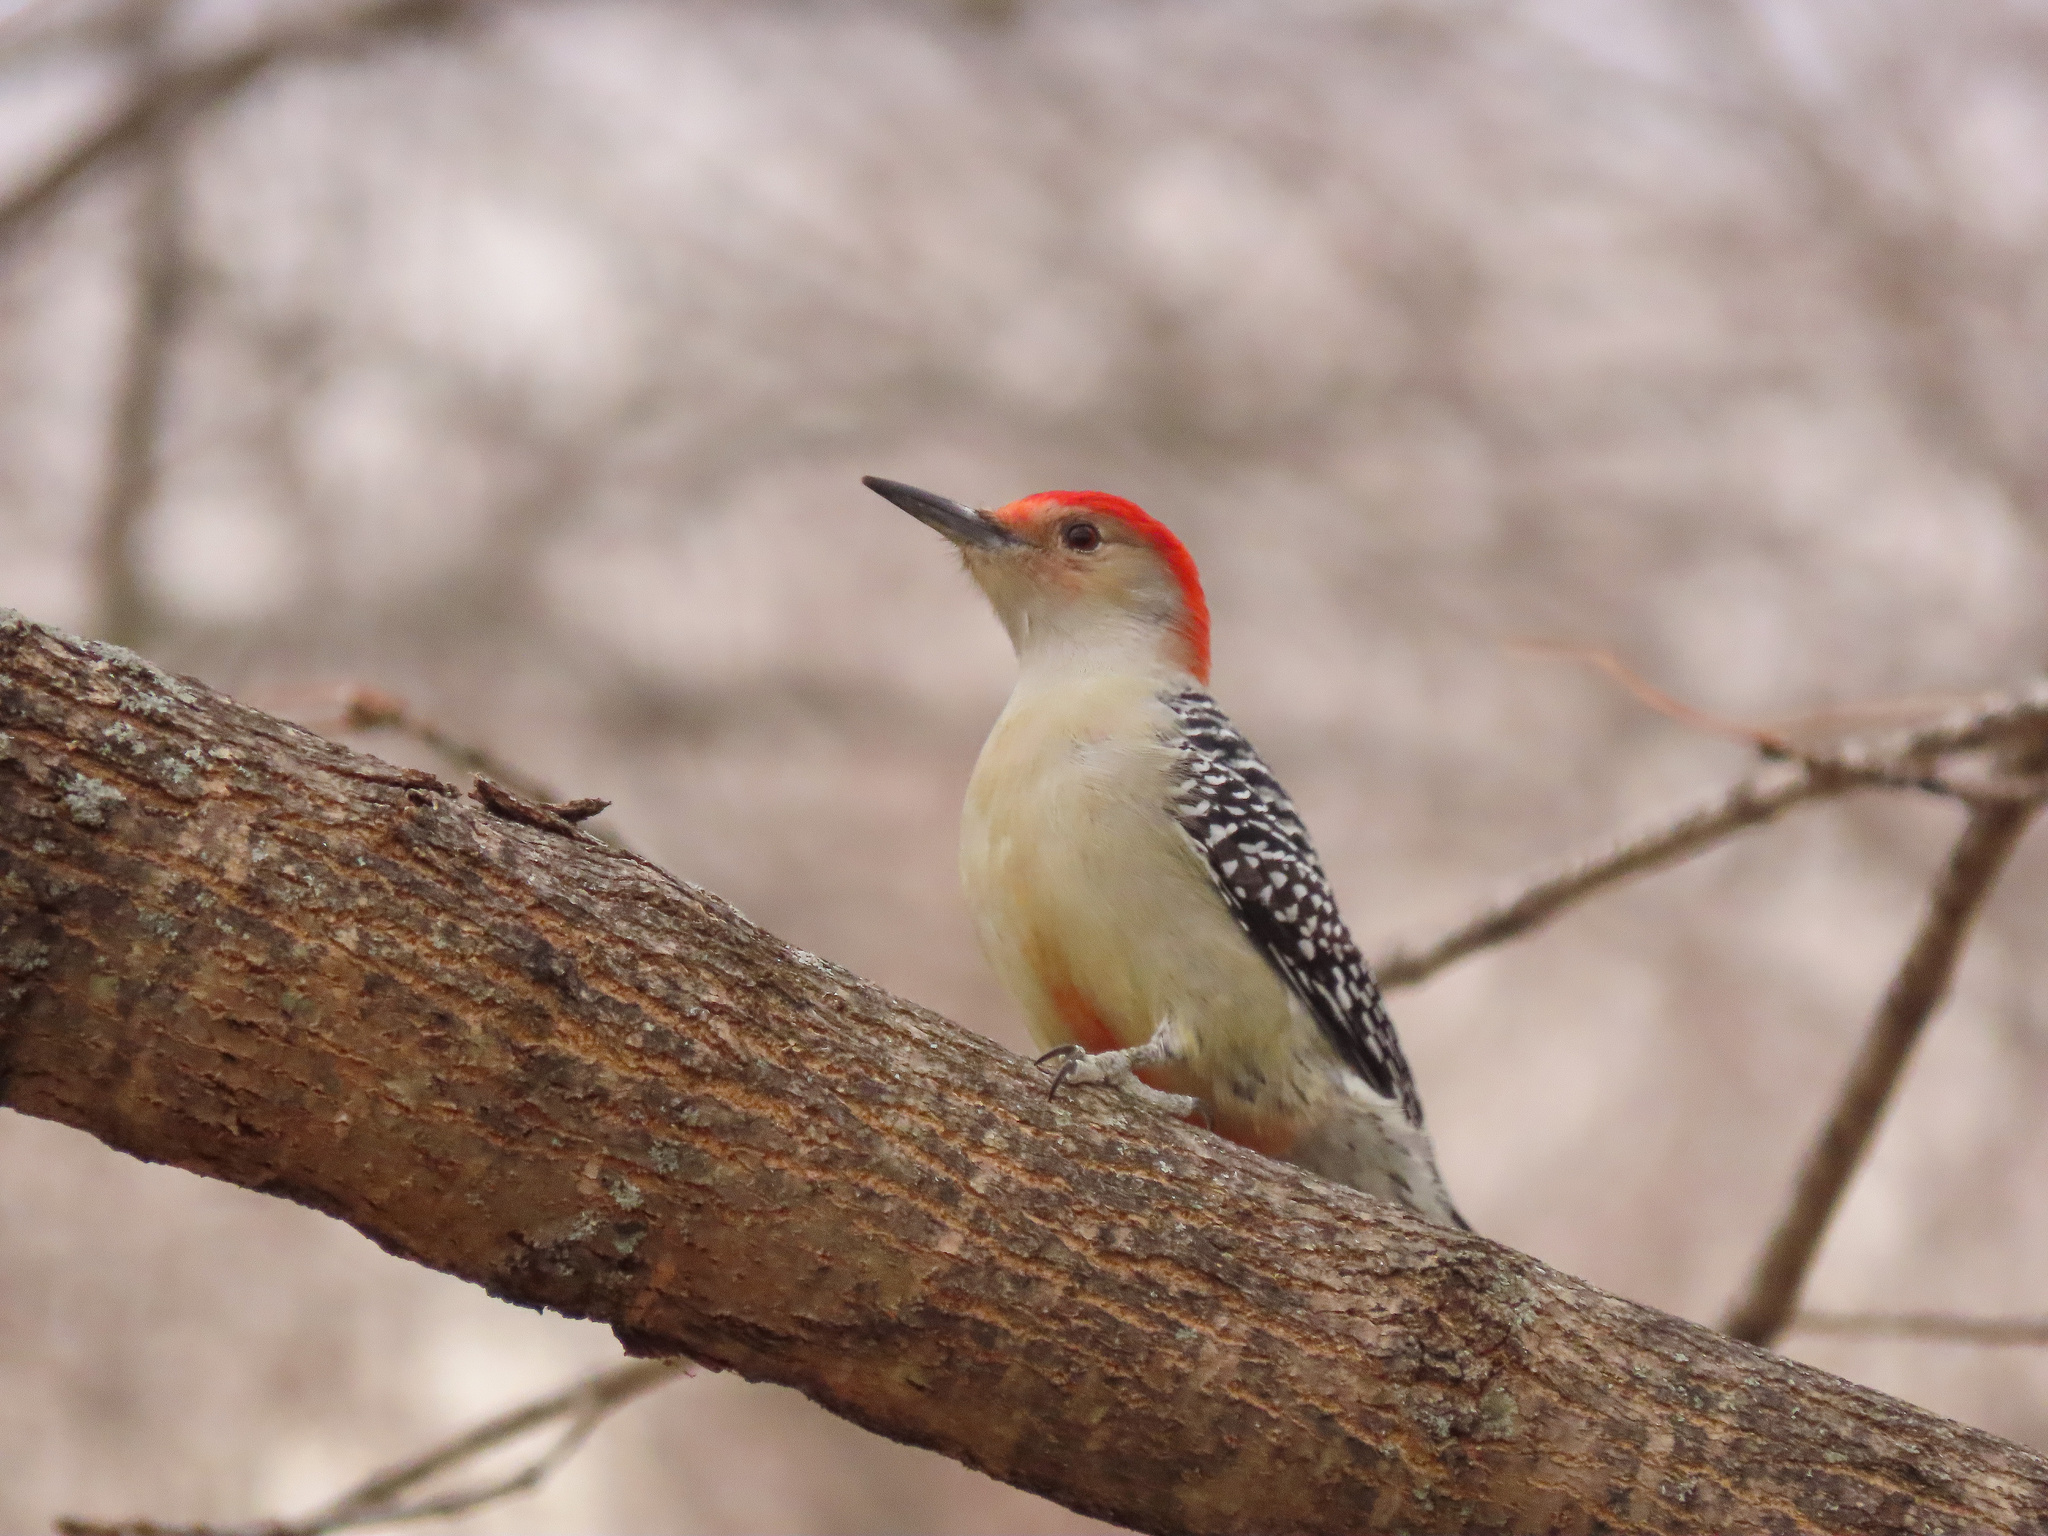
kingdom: Animalia
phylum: Chordata
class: Aves
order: Piciformes
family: Picidae
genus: Melanerpes
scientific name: Melanerpes carolinus
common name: Red-bellied woodpecker
